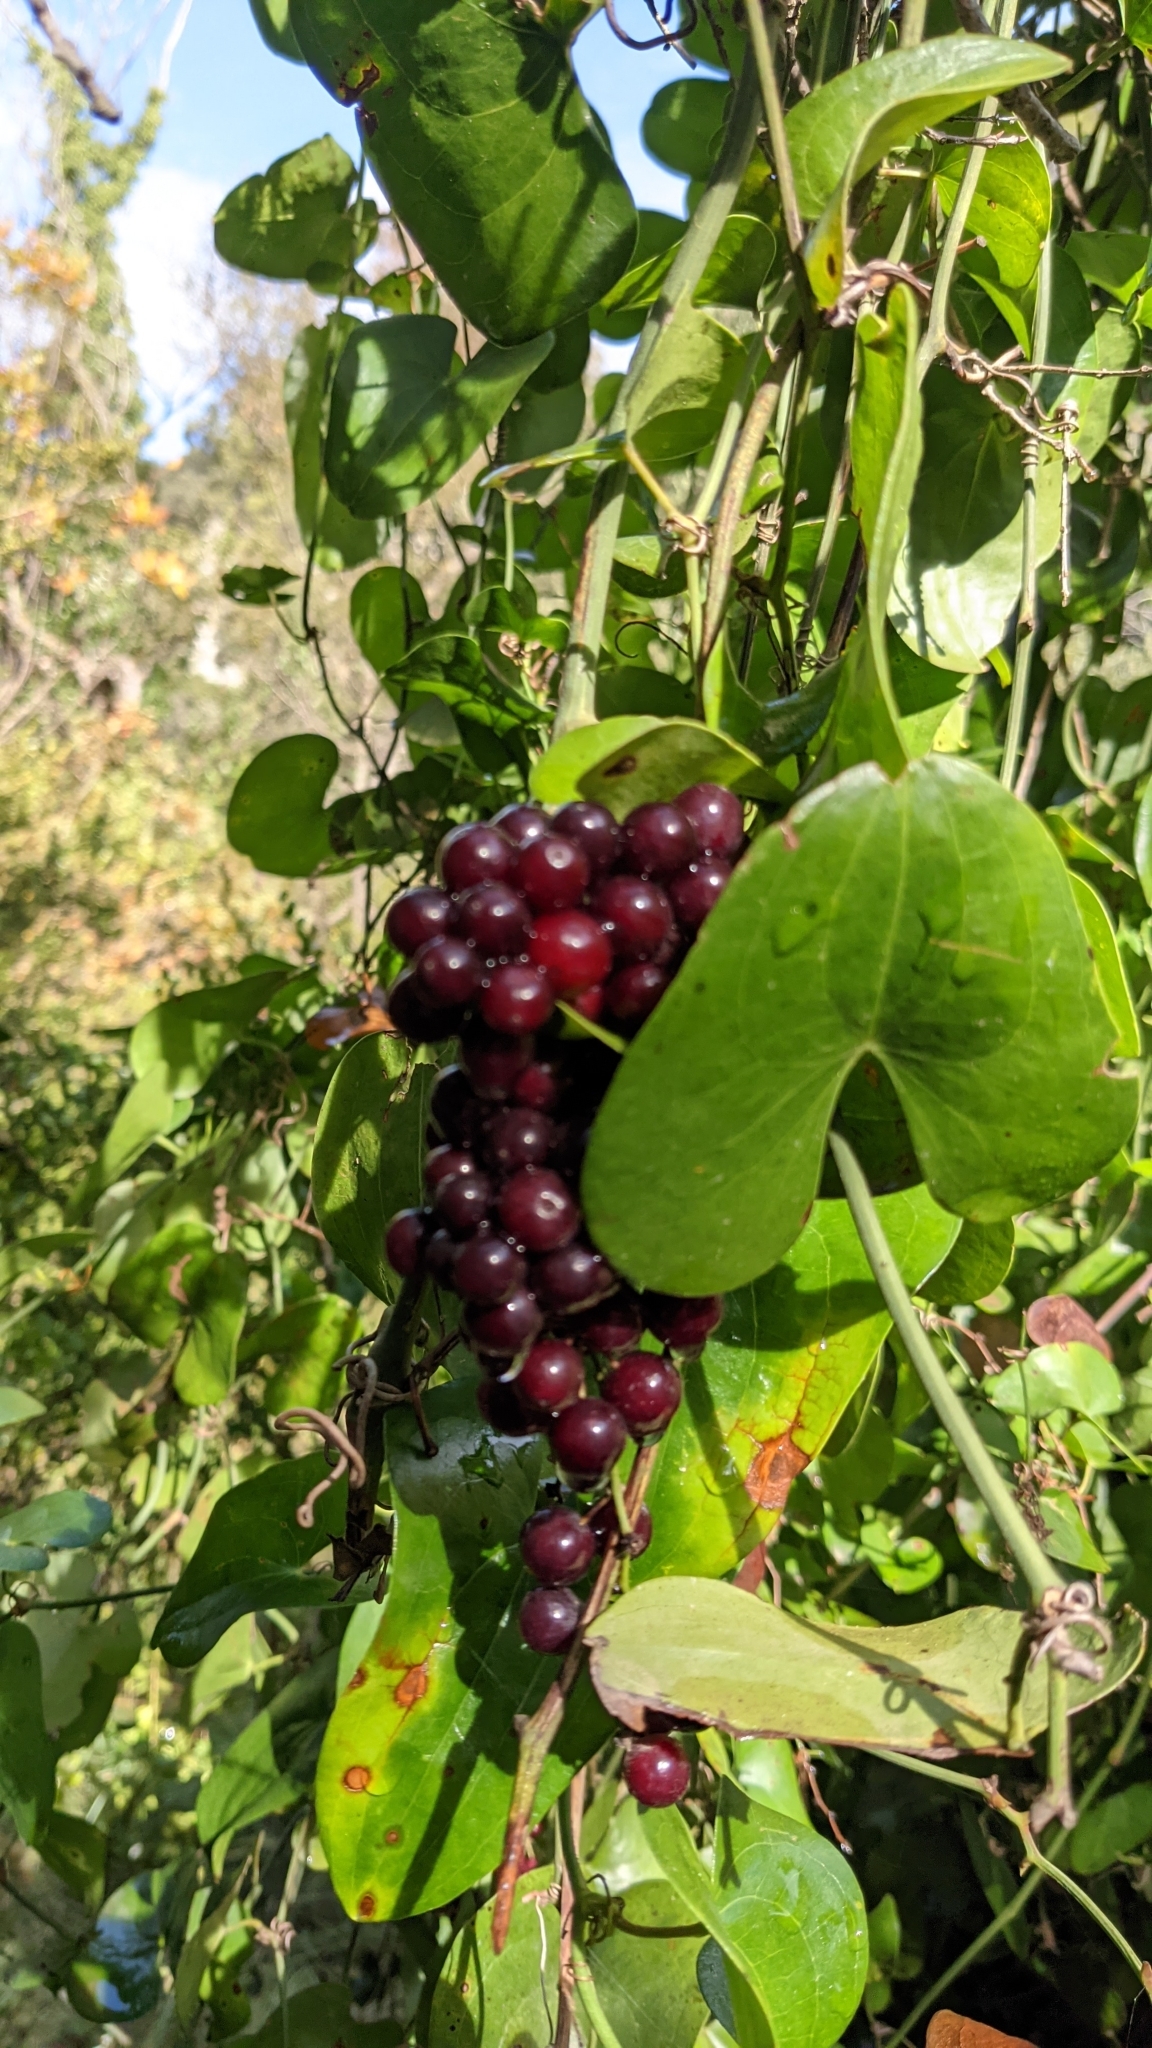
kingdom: Plantae
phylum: Tracheophyta
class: Liliopsida
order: Liliales
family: Smilacaceae
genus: Smilax
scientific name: Smilax aspera
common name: Common smilax
